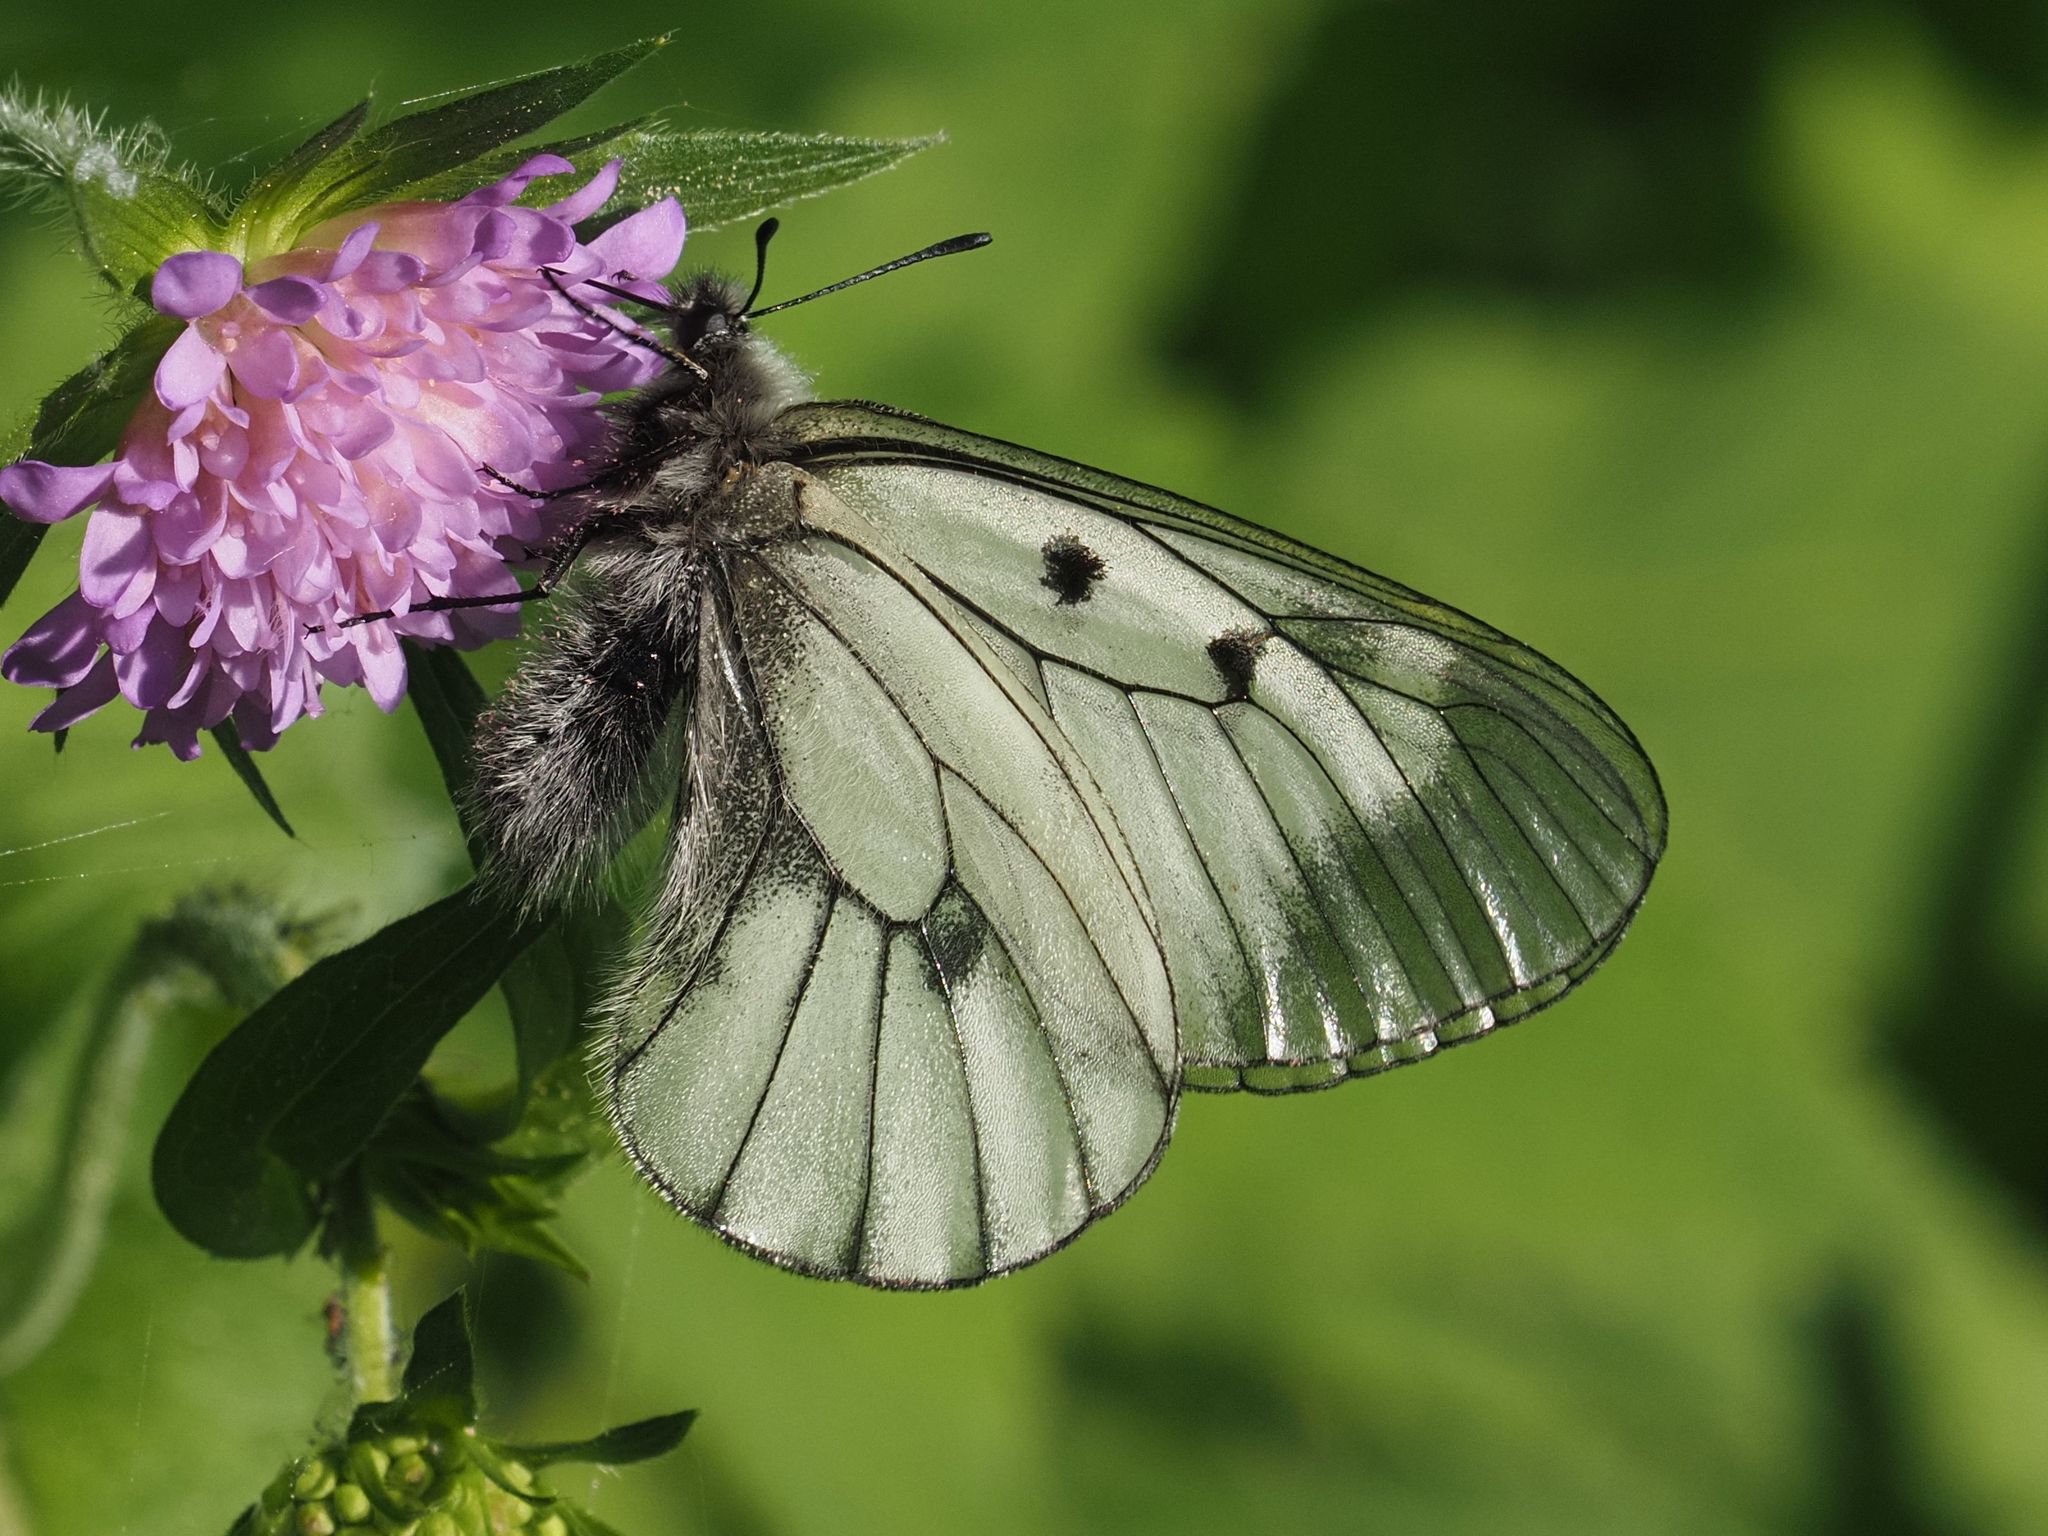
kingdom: Animalia
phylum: Arthropoda
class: Insecta
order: Lepidoptera
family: Papilionidae
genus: Parnassius
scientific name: Parnassius mnemosyne
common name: Clouded apollo
